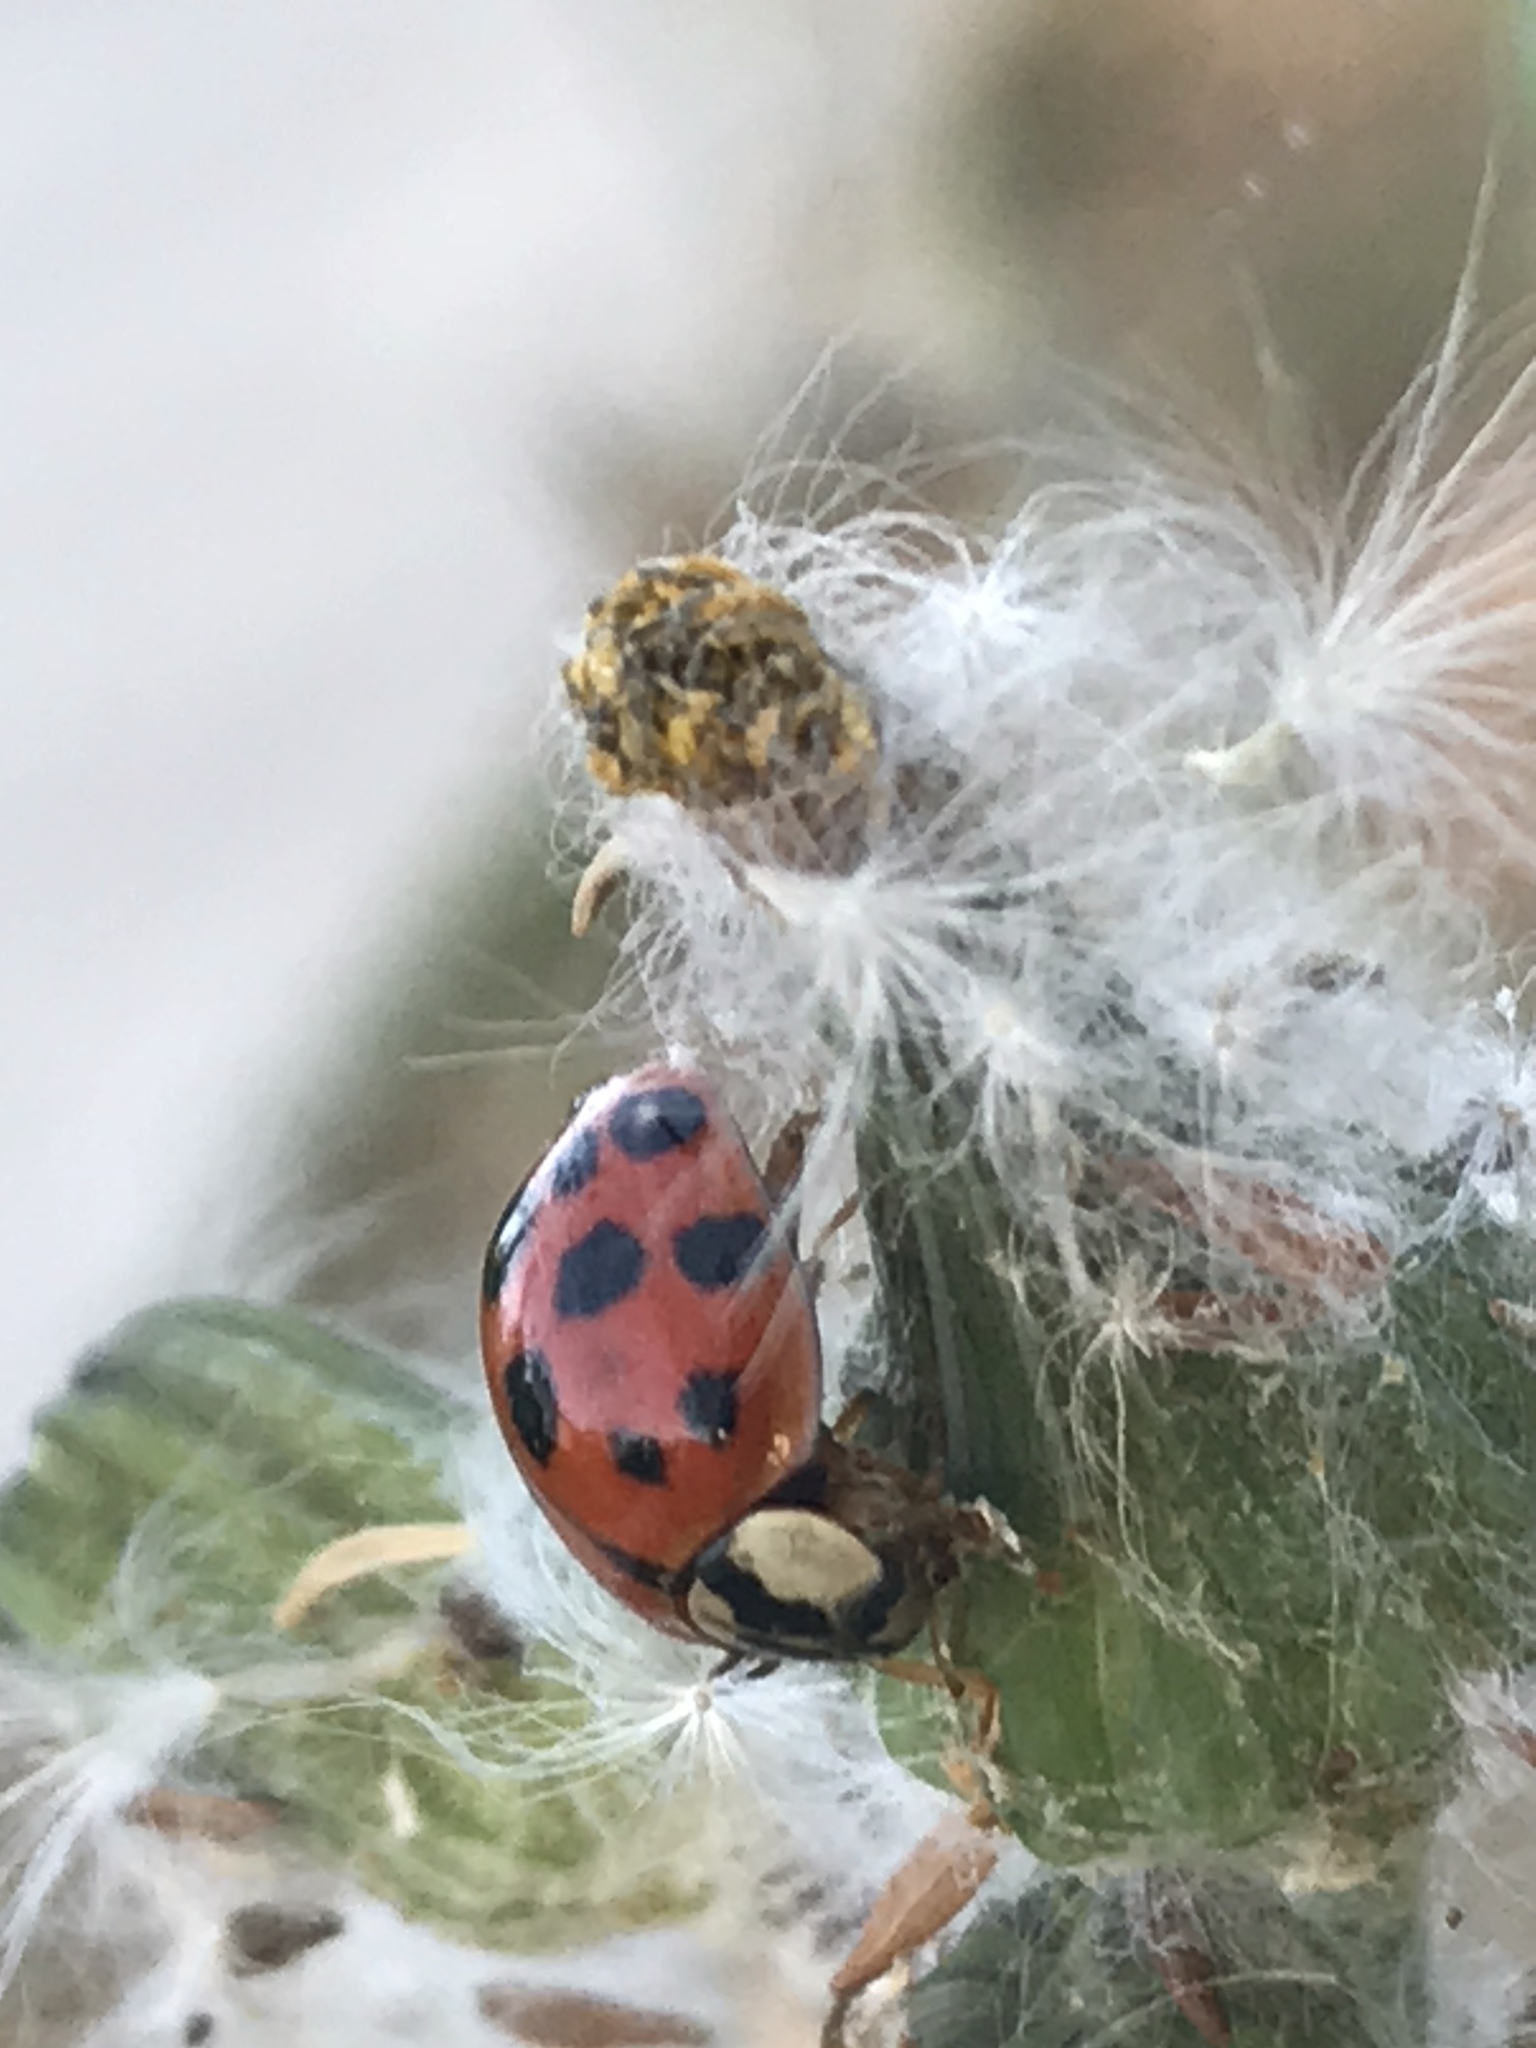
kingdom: Animalia
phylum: Arthropoda
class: Insecta
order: Coleoptera
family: Coccinellidae
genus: Harmonia
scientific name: Harmonia axyridis
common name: Harlequin ladybird
